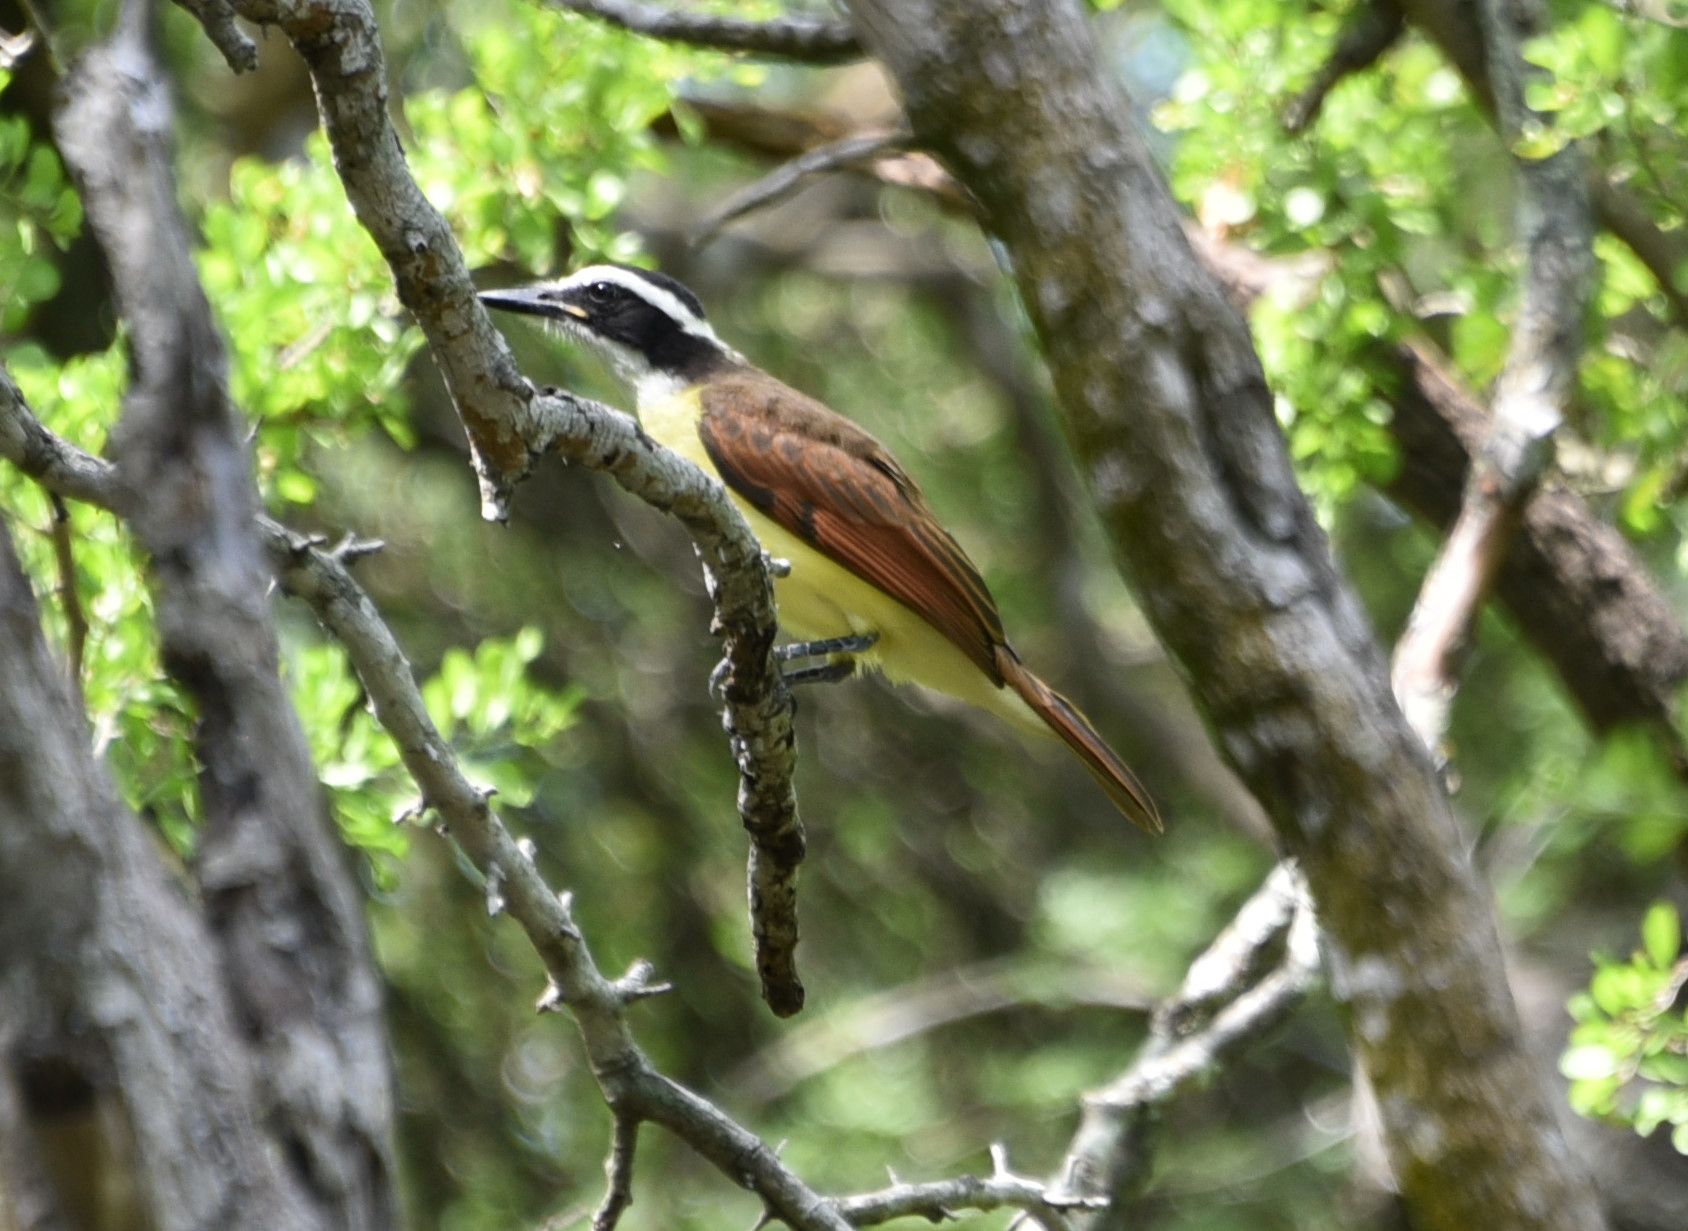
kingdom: Animalia
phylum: Chordata
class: Aves
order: Passeriformes
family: Tyrannidae
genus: Pitangus
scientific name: Pitangus sulphuratus
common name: Great kiskadee
